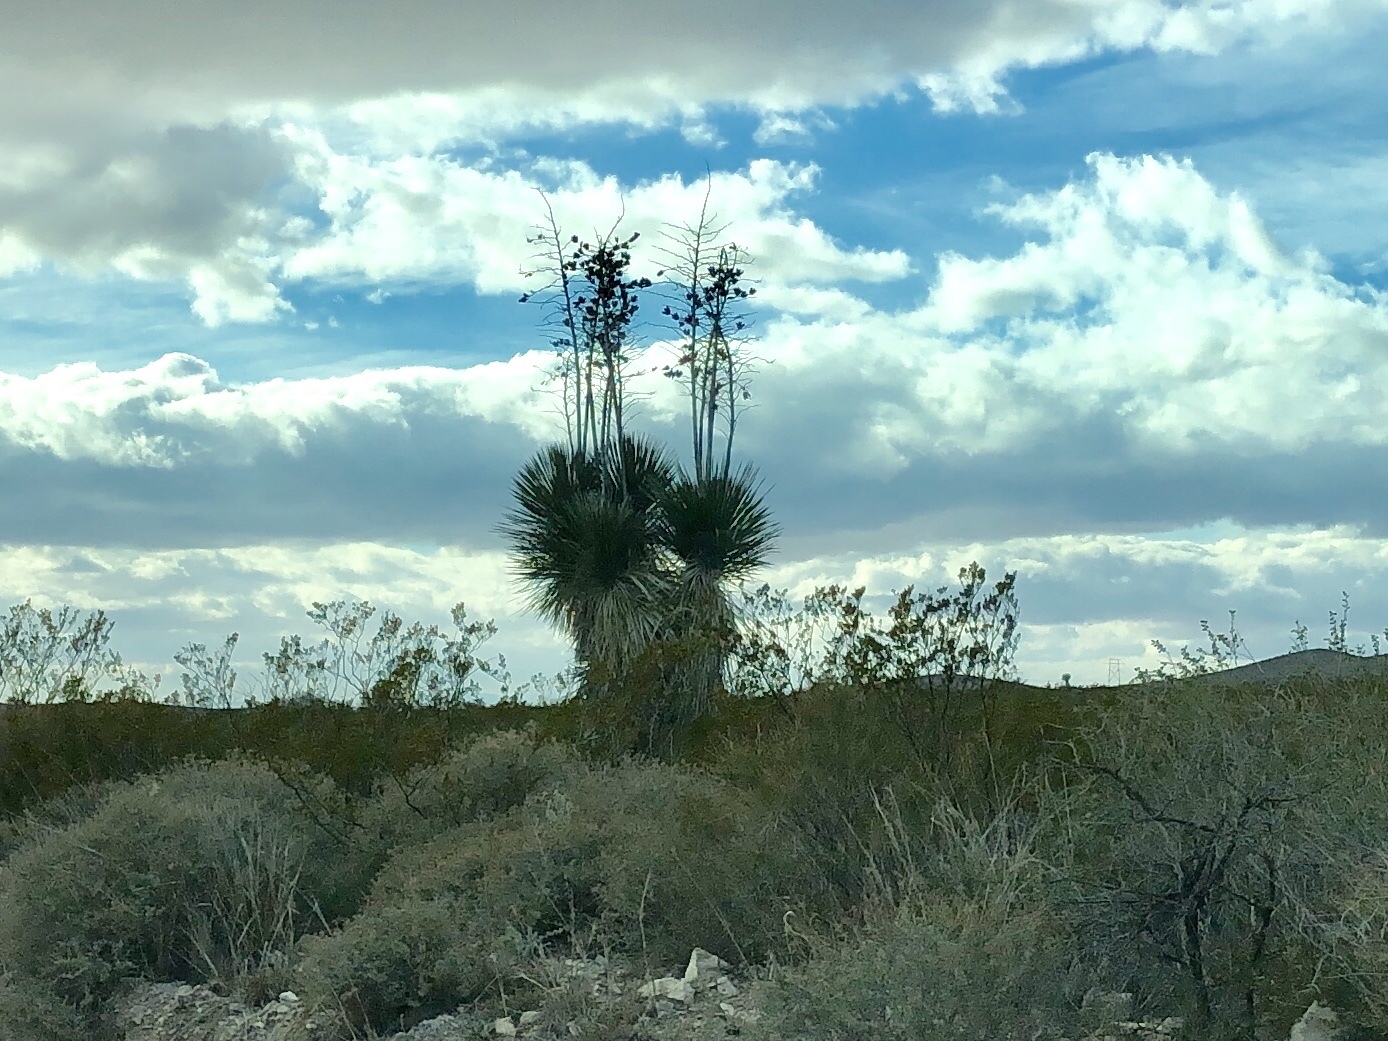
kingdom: Plantae
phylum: Tracheophyta
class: Liliopsida
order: Asparagales
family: Asparagaceae
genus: Yucca
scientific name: Yucca elata
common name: Palmella
